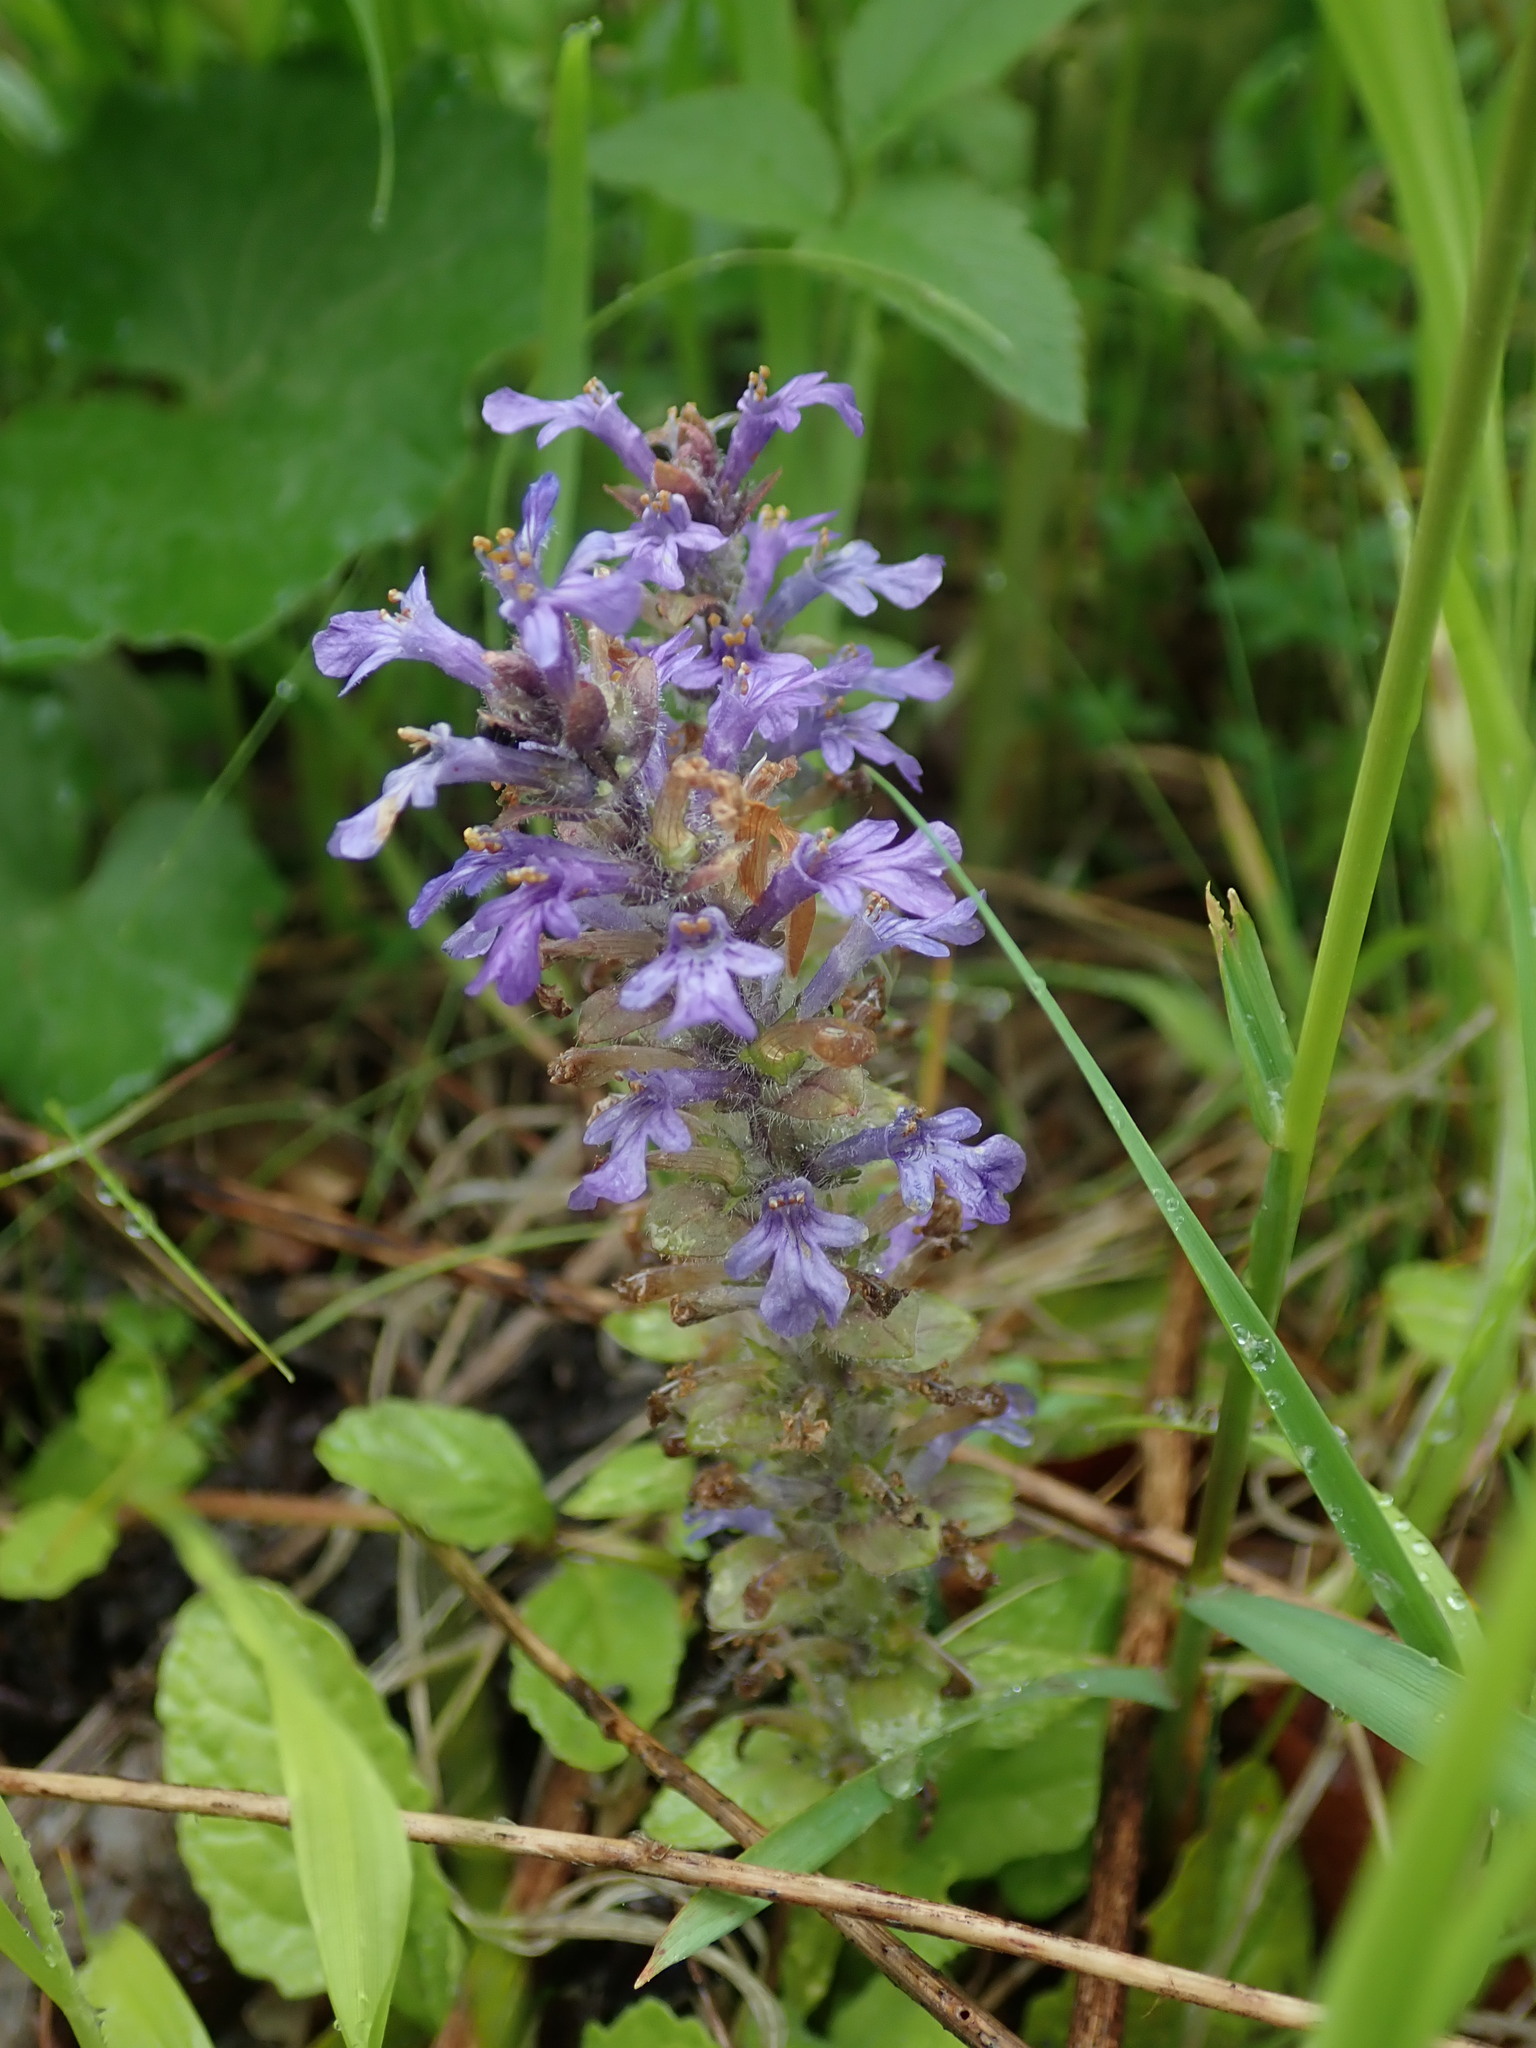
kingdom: Plantae
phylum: Tracheophyta
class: Magnoliopsida
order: Lamiales
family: Lamiaceae
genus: Ajuga
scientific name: Ajuga reptans
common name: Bugle
